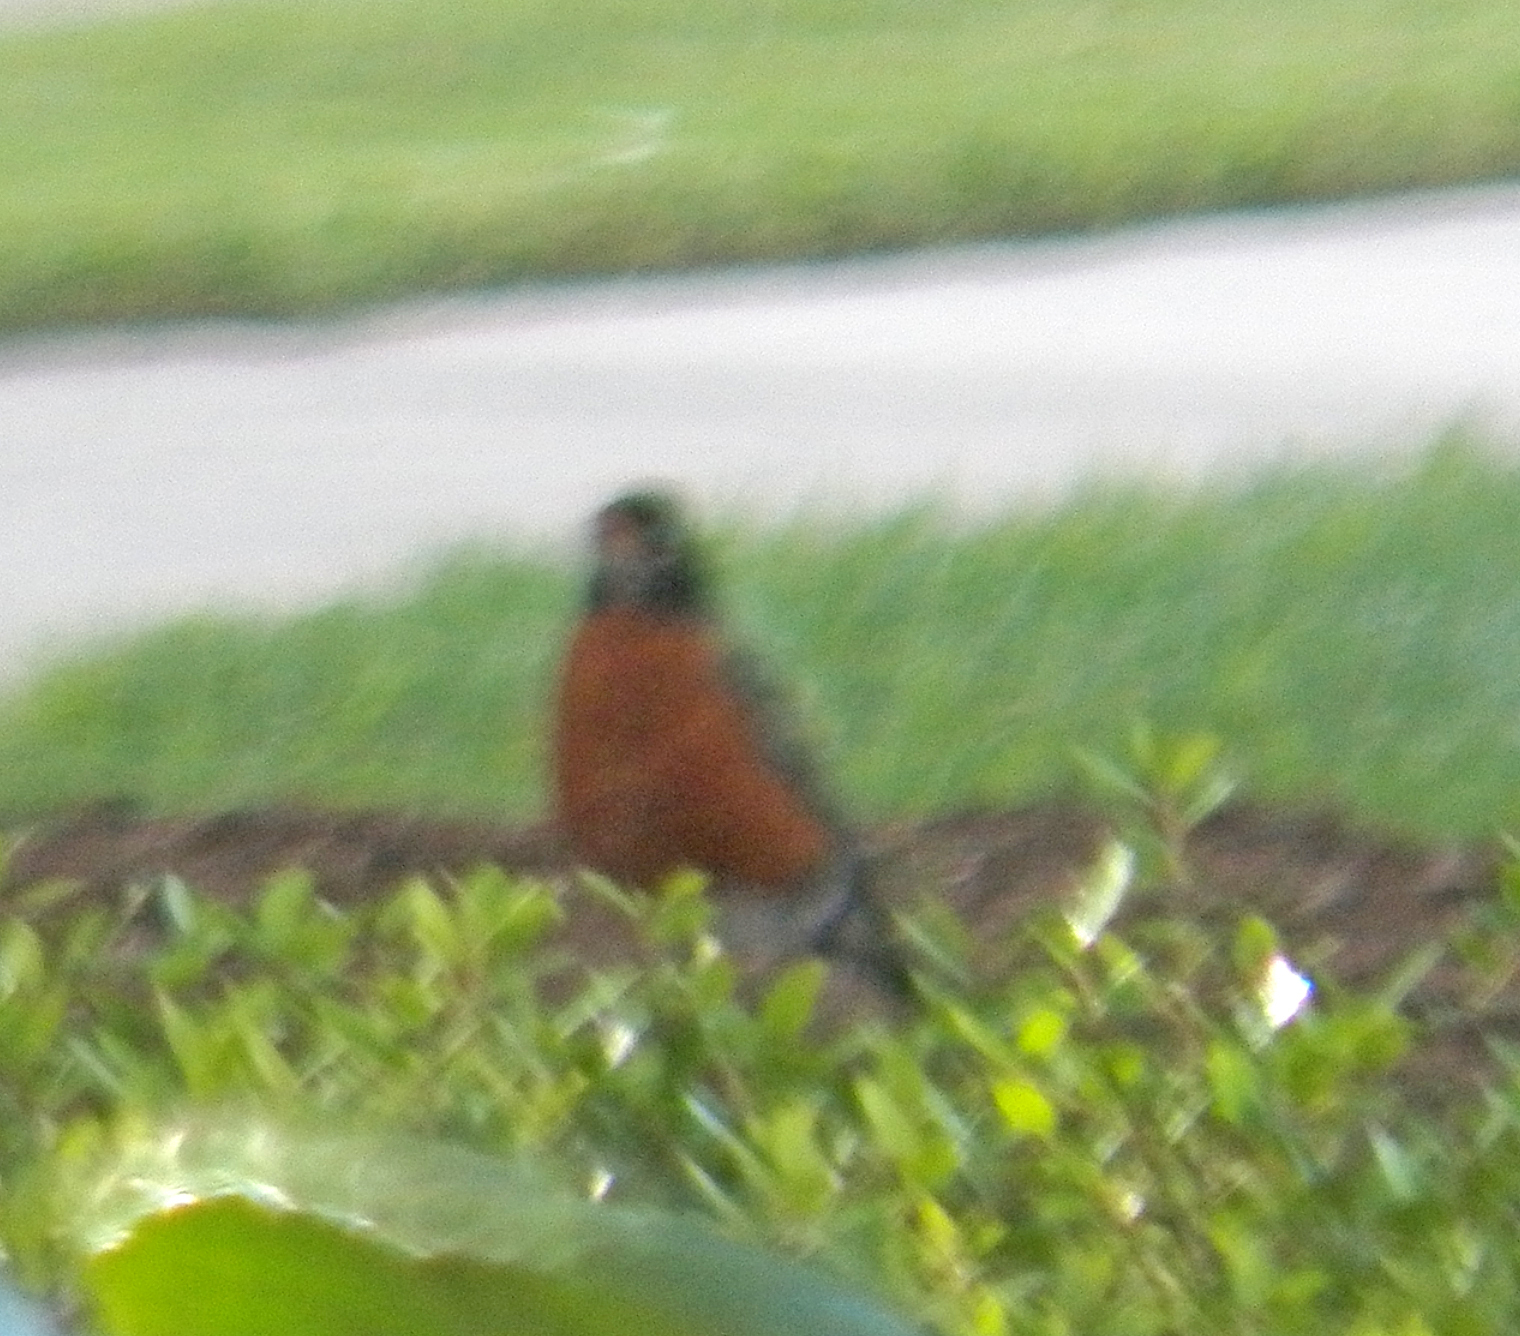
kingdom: Animalia
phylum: Chordata
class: Aves
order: Passeriformes
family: Turdidae
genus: Turdus
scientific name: Turdus migratorius
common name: American robin
